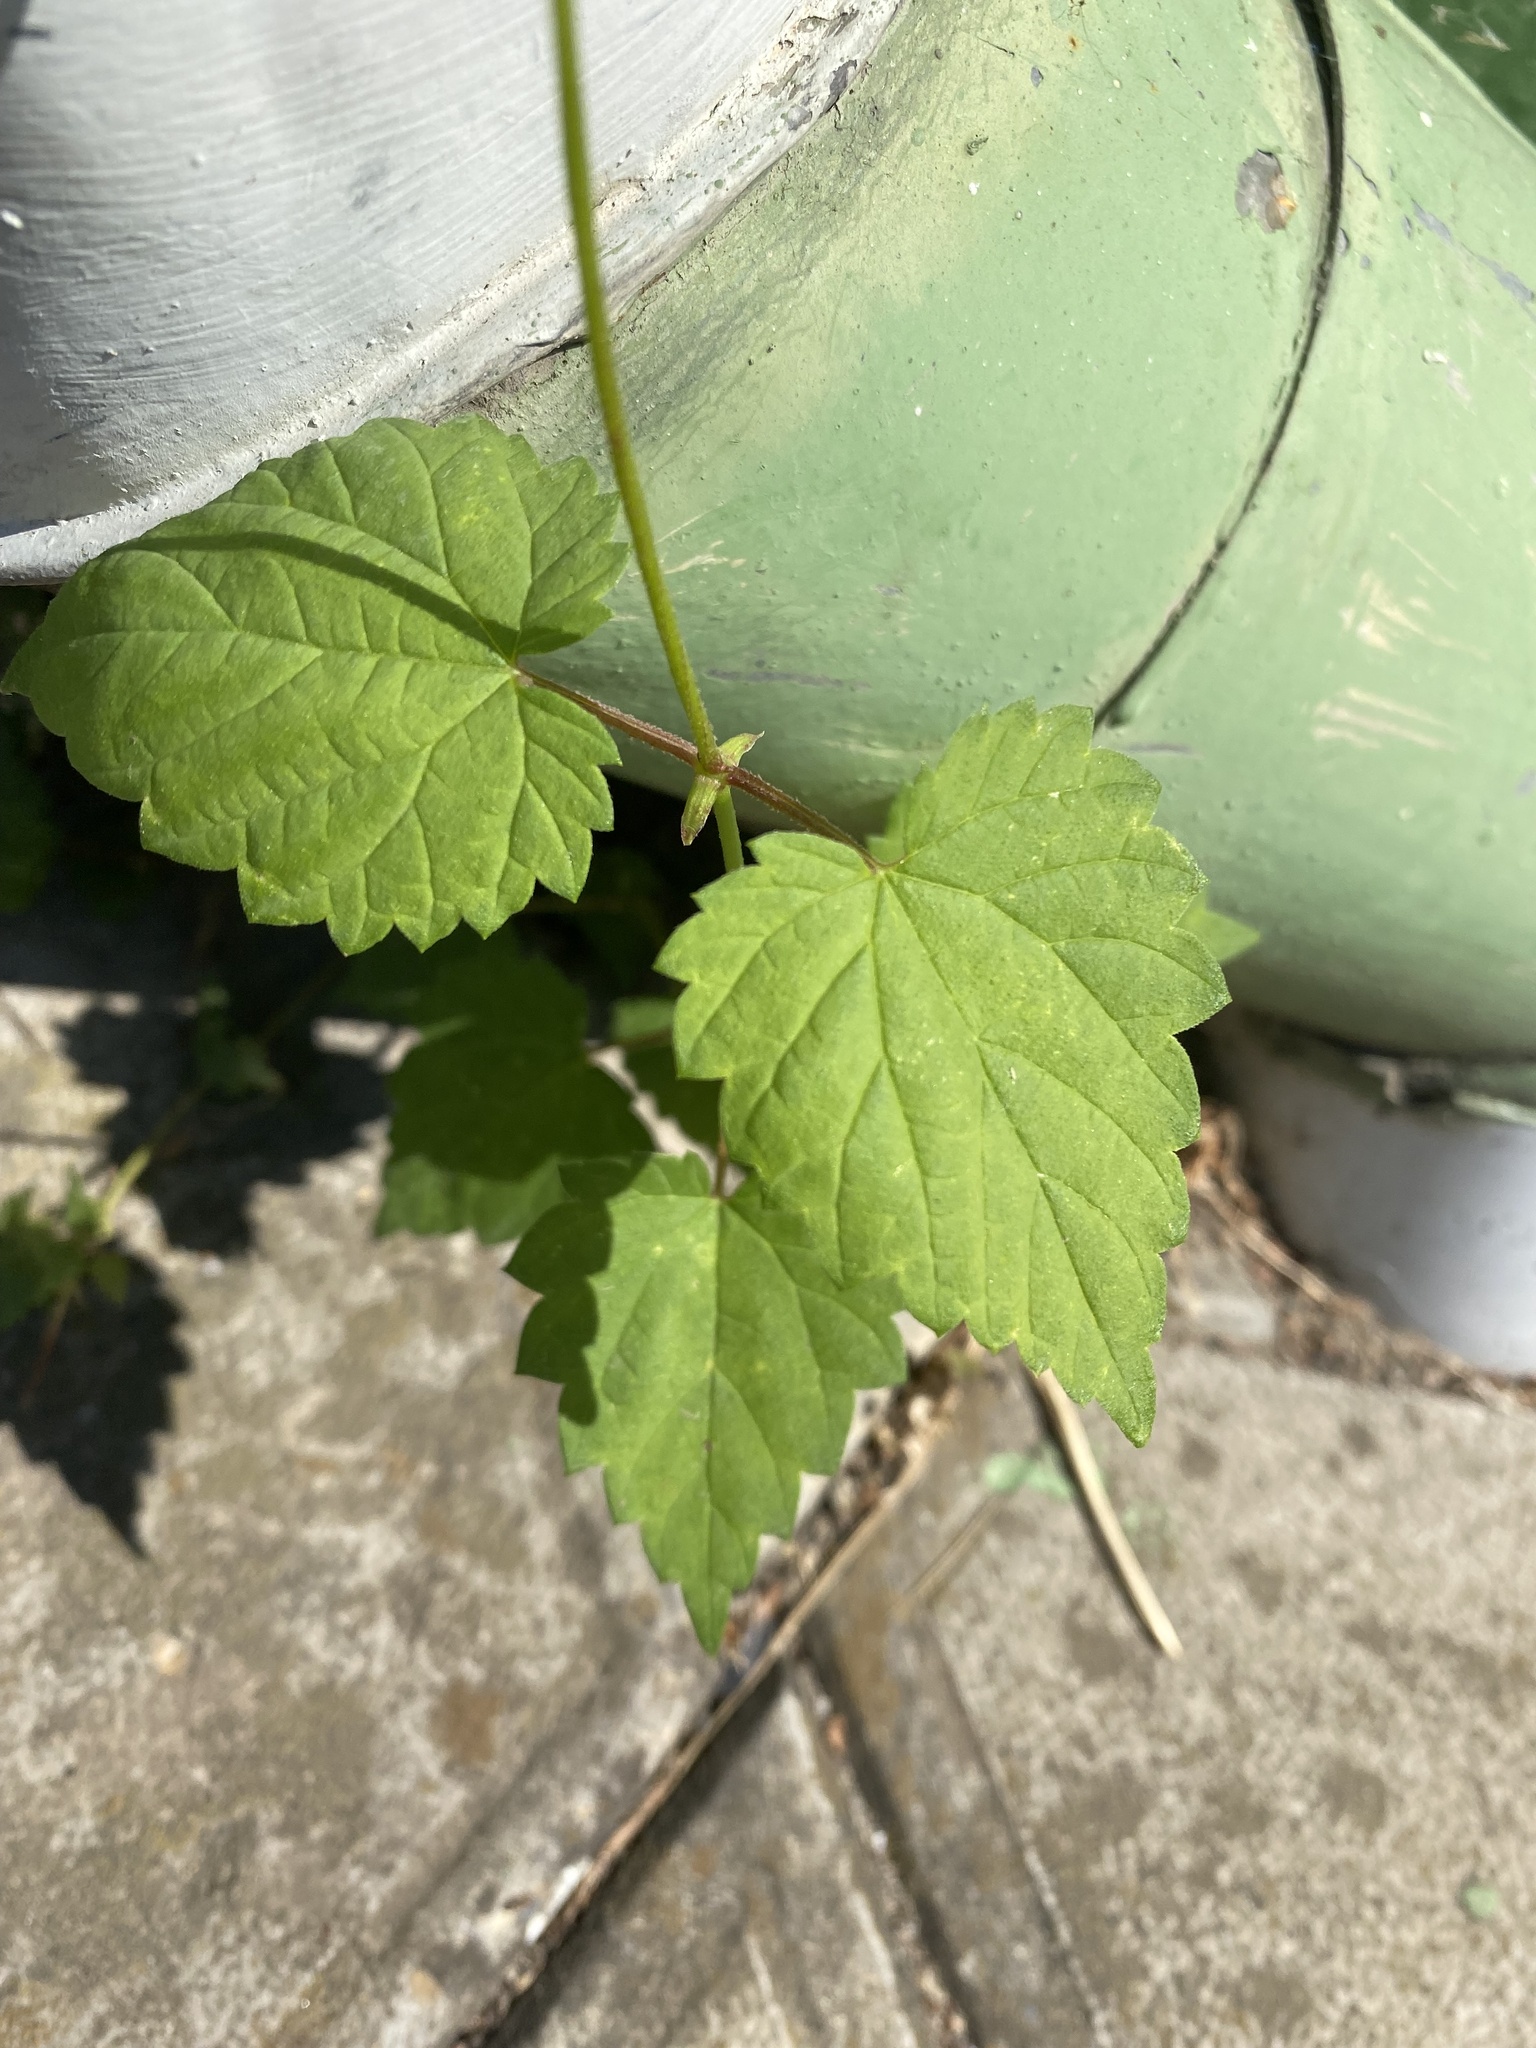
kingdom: Plantae
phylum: Tracheophyta
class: Magnoliopsida
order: Rosales
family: Cannabaceae
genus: Humulus
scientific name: Humulus lupulus
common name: Hop
